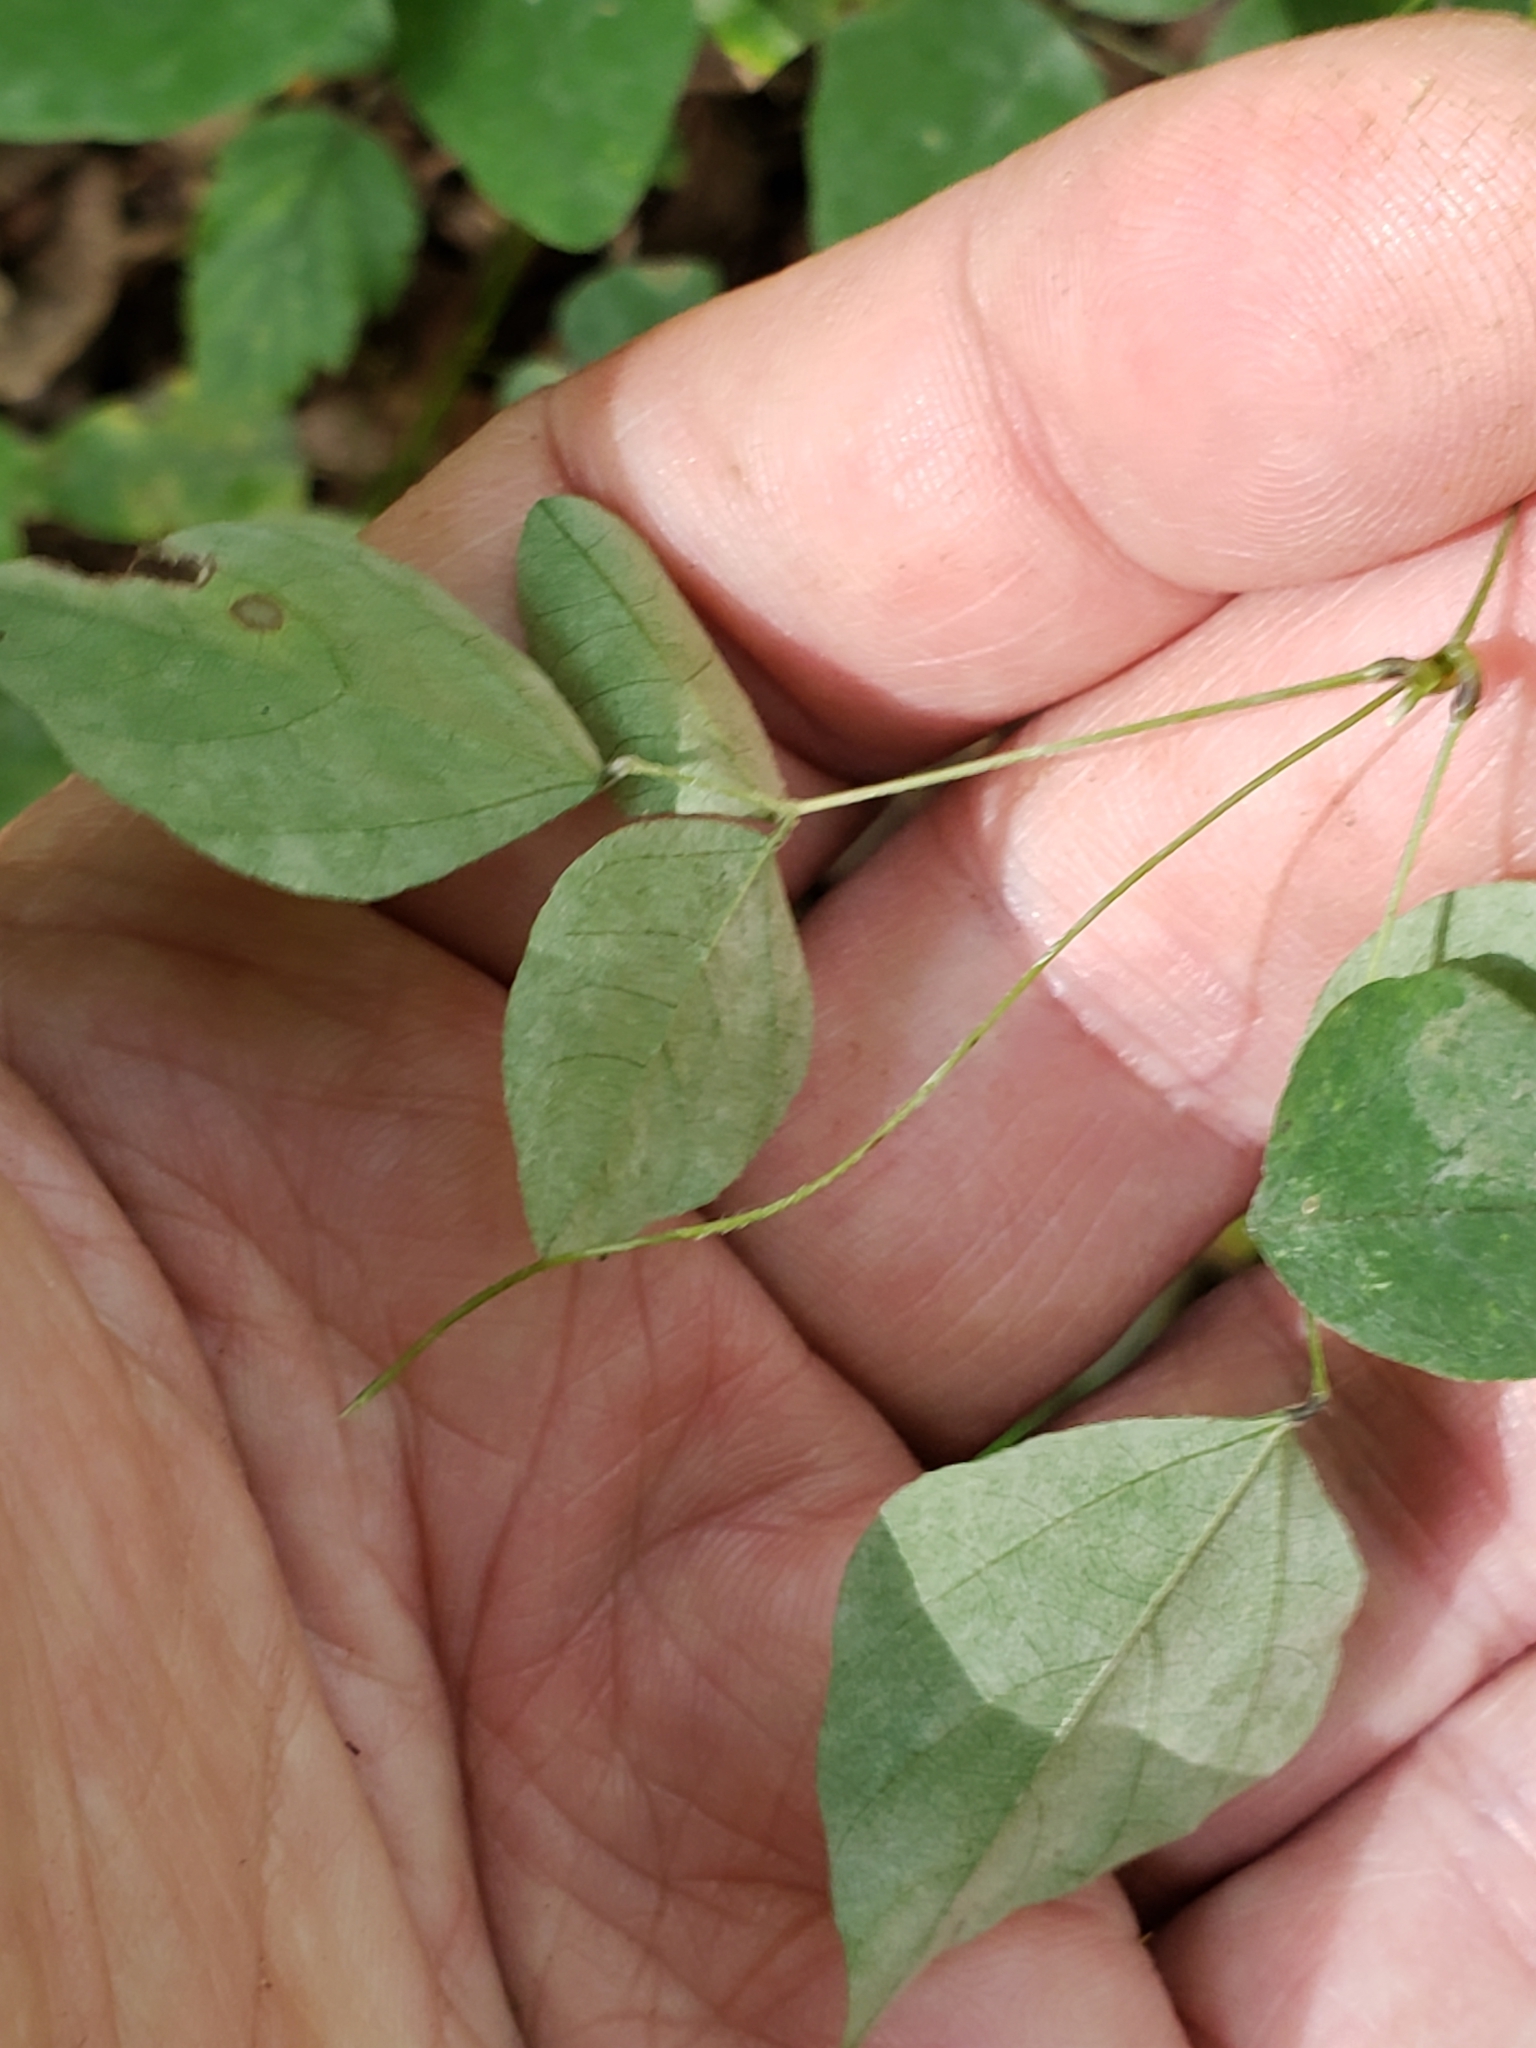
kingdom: Fungi
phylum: Ascomycota
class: Leotiomycetes
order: Helotiales
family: Erysiphaceae
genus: Erysiphe
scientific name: Erysiphe diffusa
